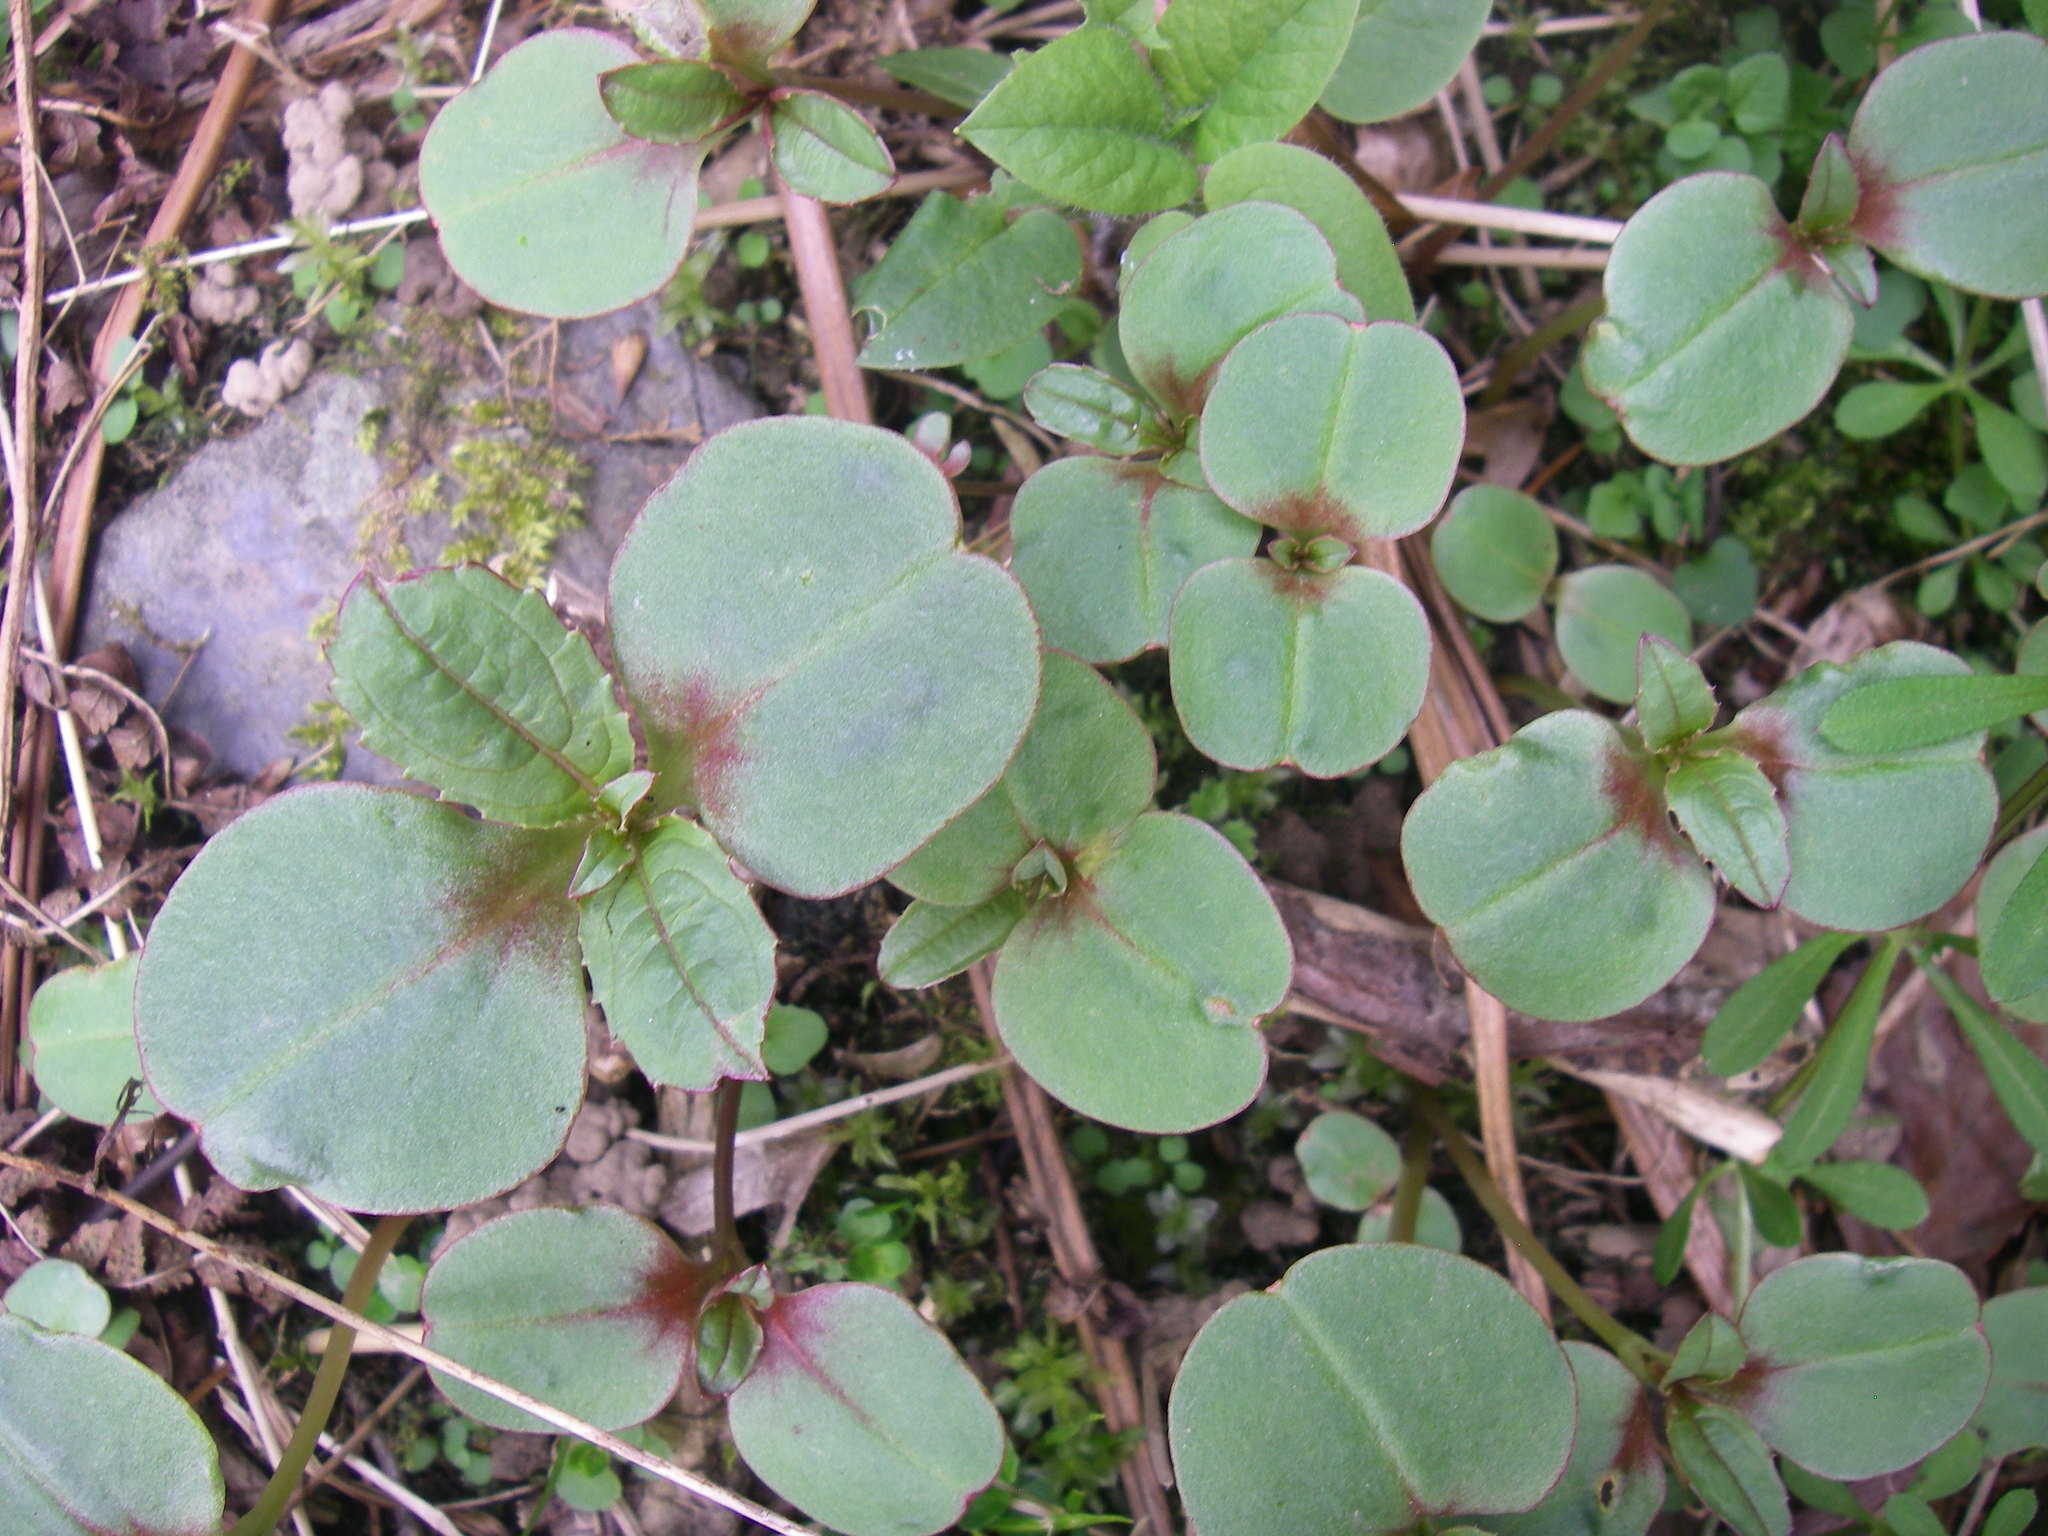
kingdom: Plantae
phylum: Tracheophyta
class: Magnoliopsida
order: Ericales
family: Balsaminaceae
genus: Impatiens
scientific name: Impatiens glandulifera
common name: Himalayan balsam
